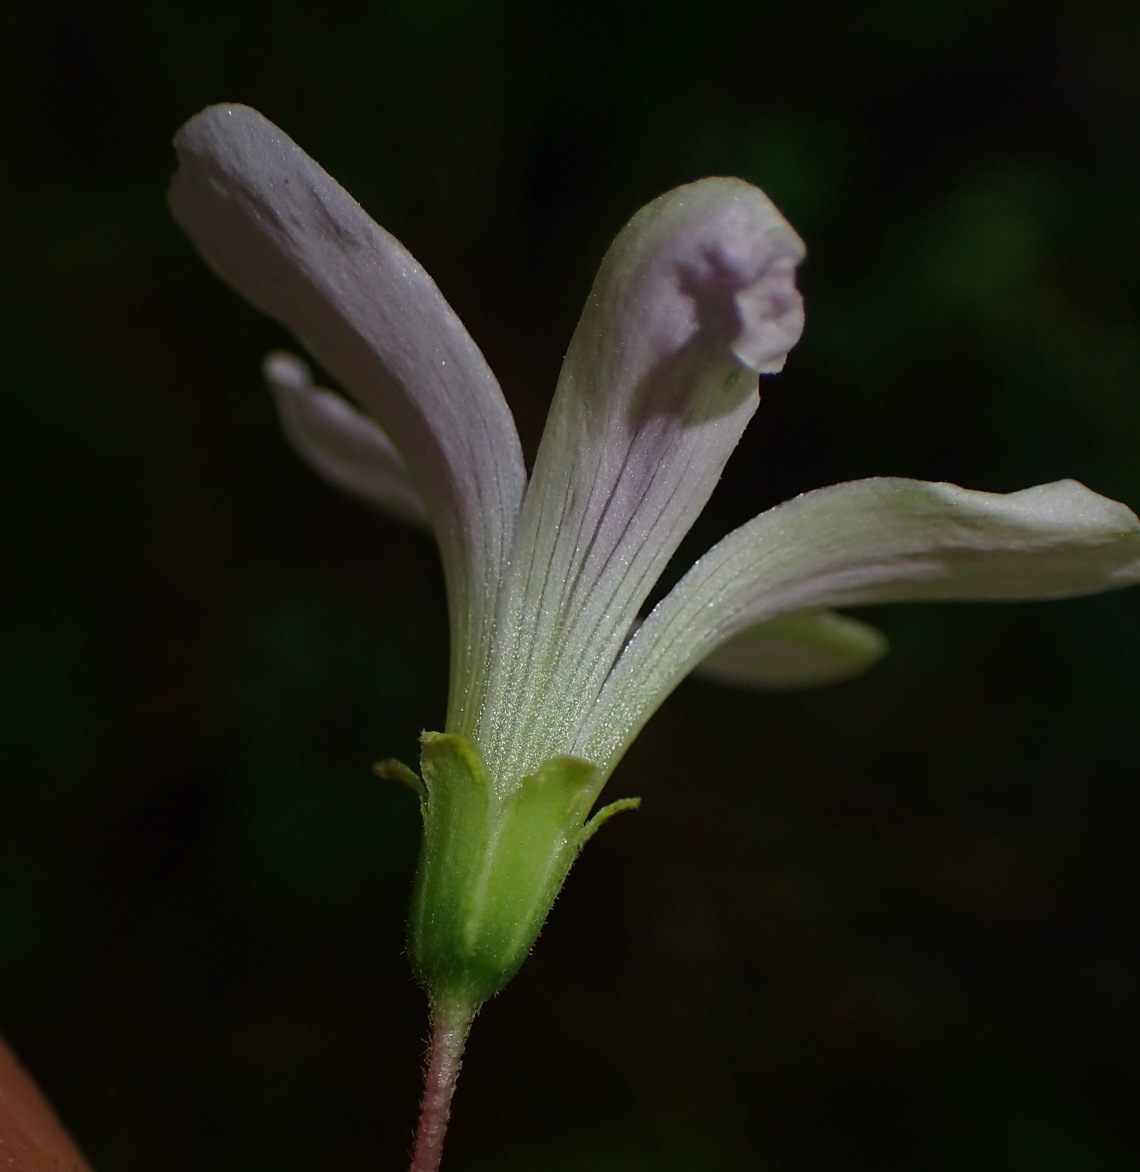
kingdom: Plantae
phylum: Tracheophyta
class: Magnoliopsida
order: Oxalidales
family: Oxalidaceae
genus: Oxalis
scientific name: Oxalis incarnata
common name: Pale pink-sorrel
